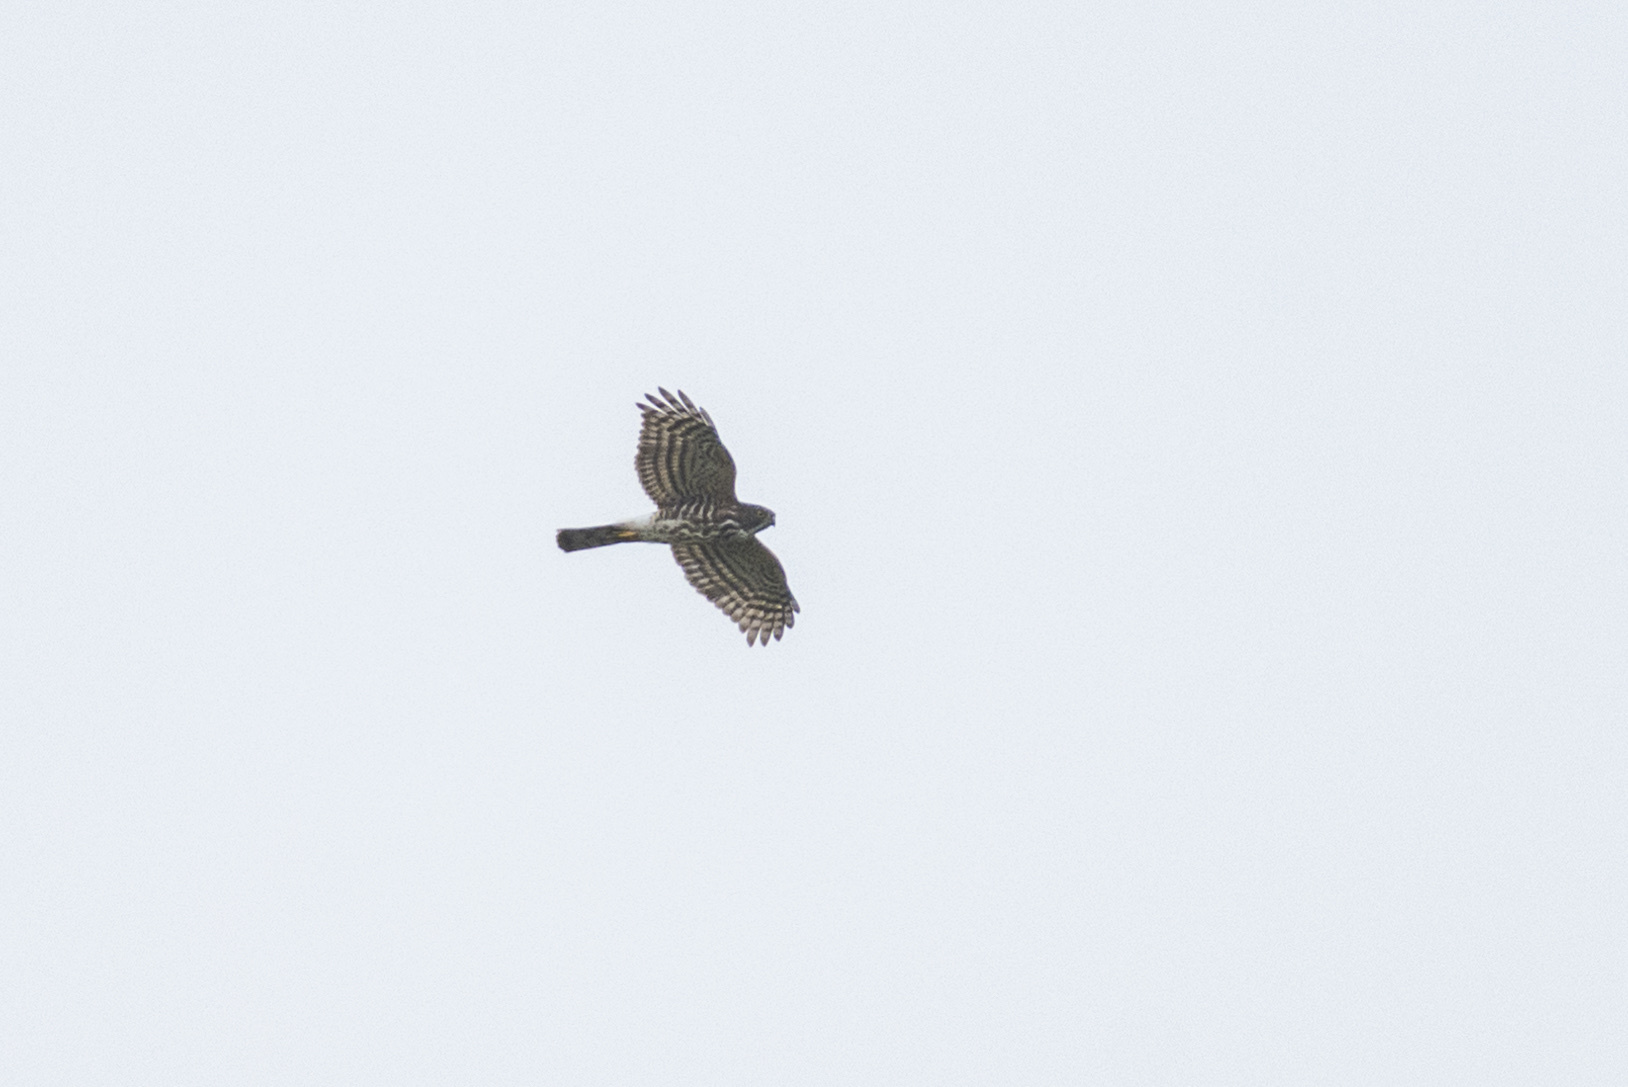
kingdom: Animalia
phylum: Chordata
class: Aves
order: Accipitriformes
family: Accipitridae
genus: Accipiter
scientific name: Accipiter virgatus
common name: Besra
